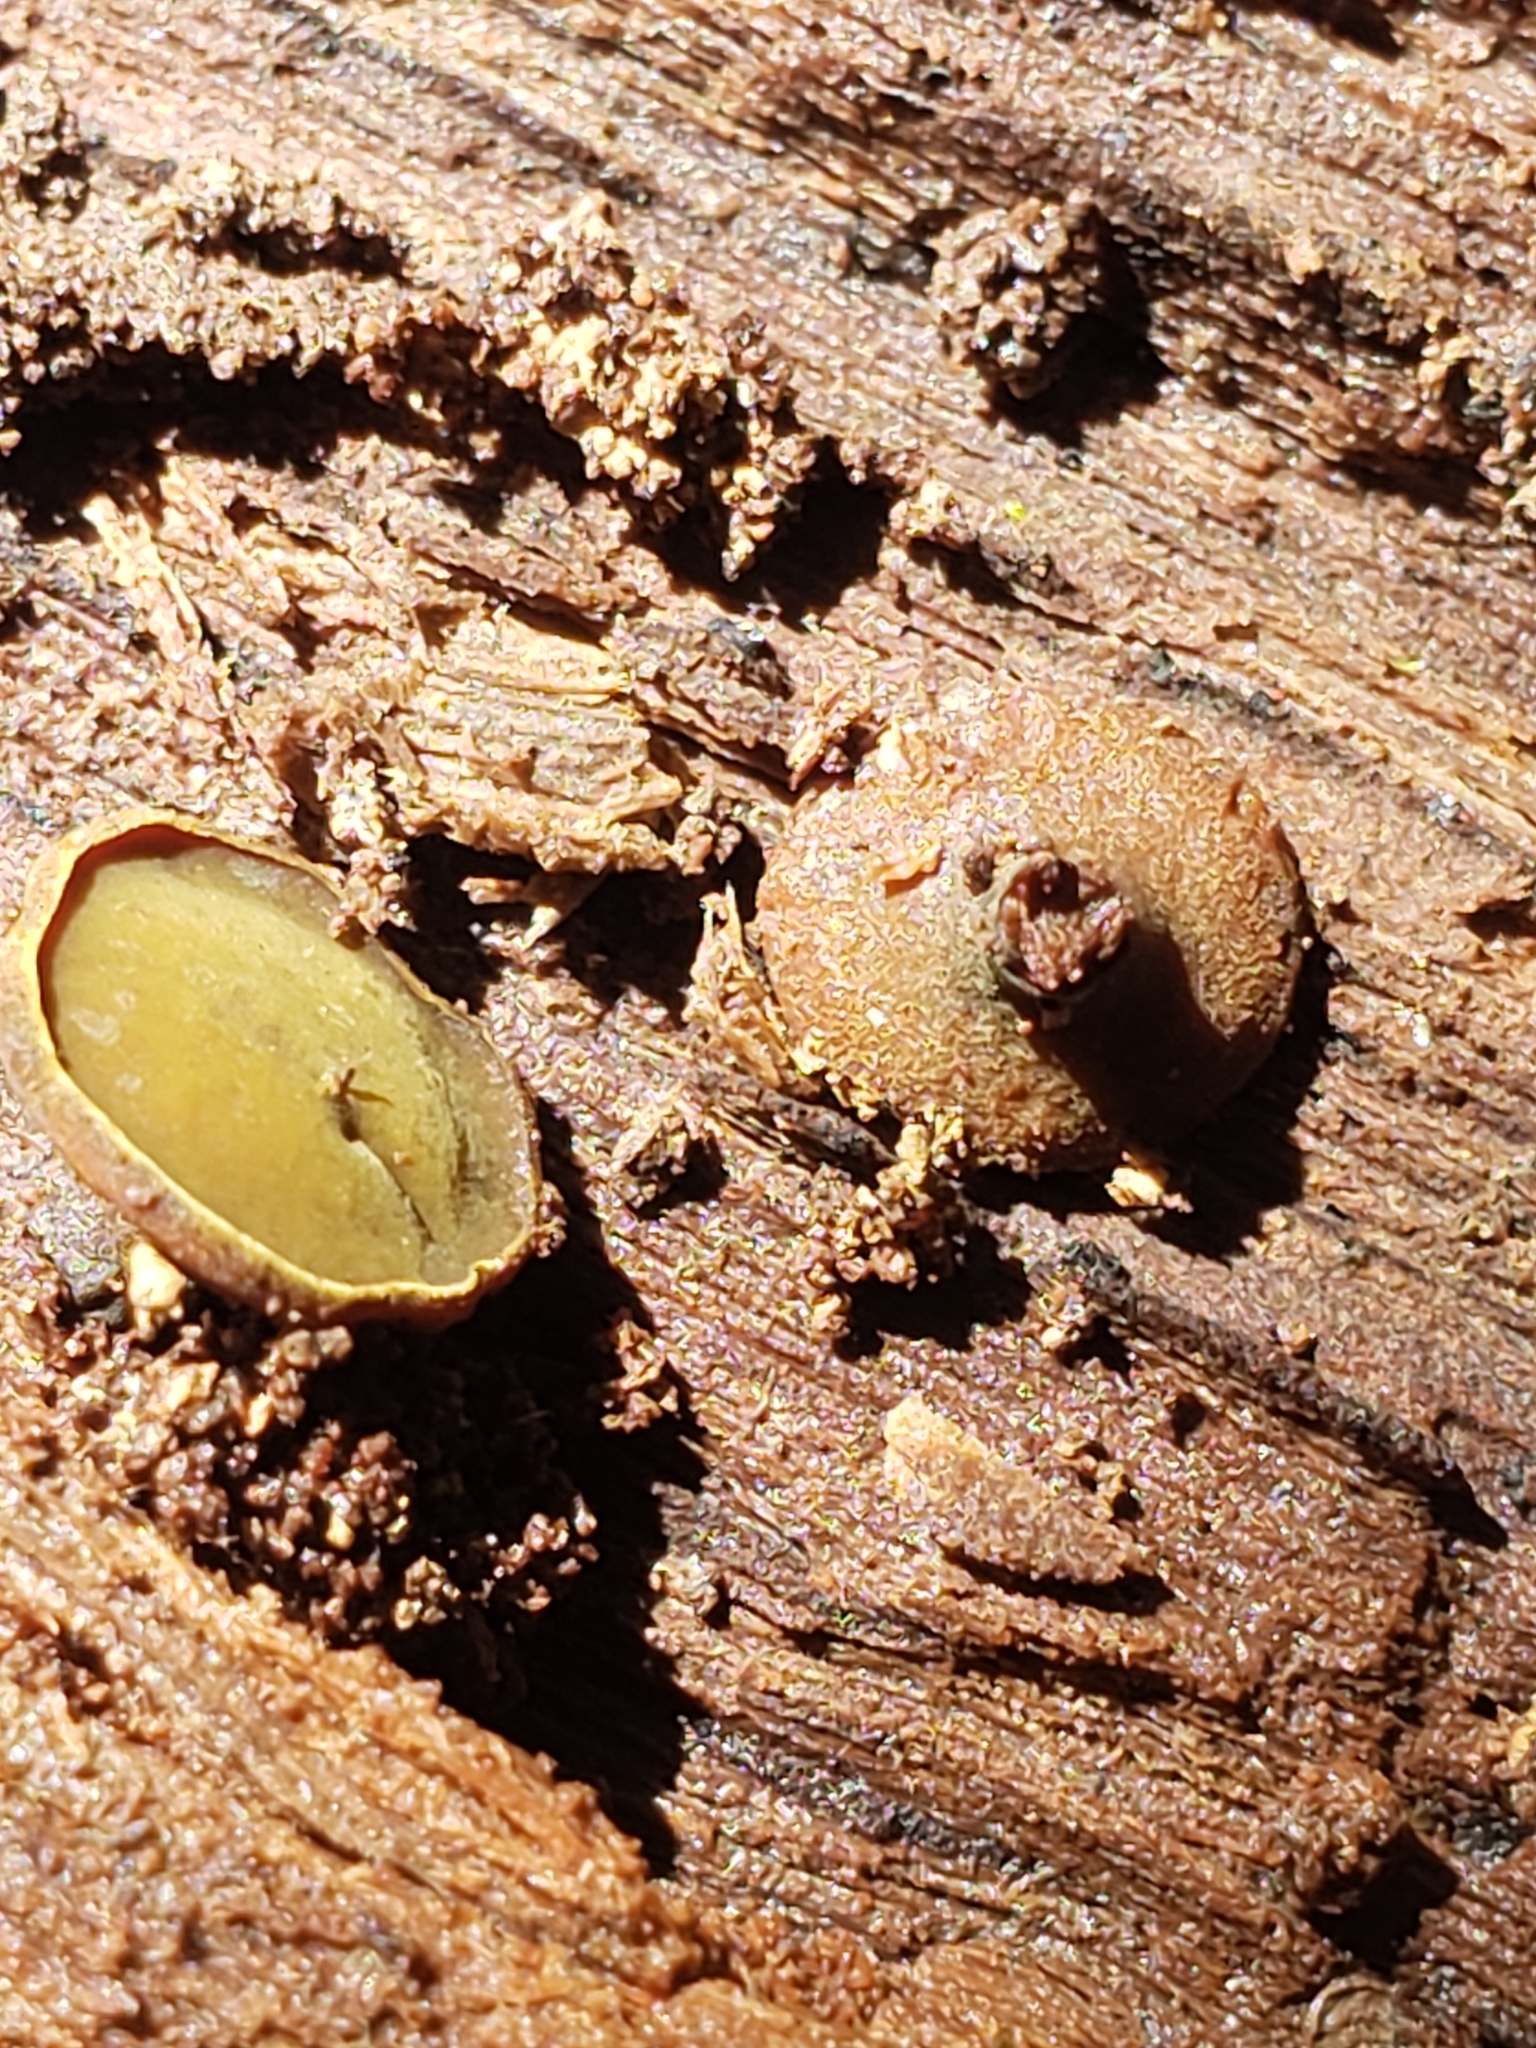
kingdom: Fungi
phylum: Ascomycota
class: Leotiomycetes
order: Helotiales
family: Cenangiaceae
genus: Chlorencoelia
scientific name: Chlorencoelia torta
